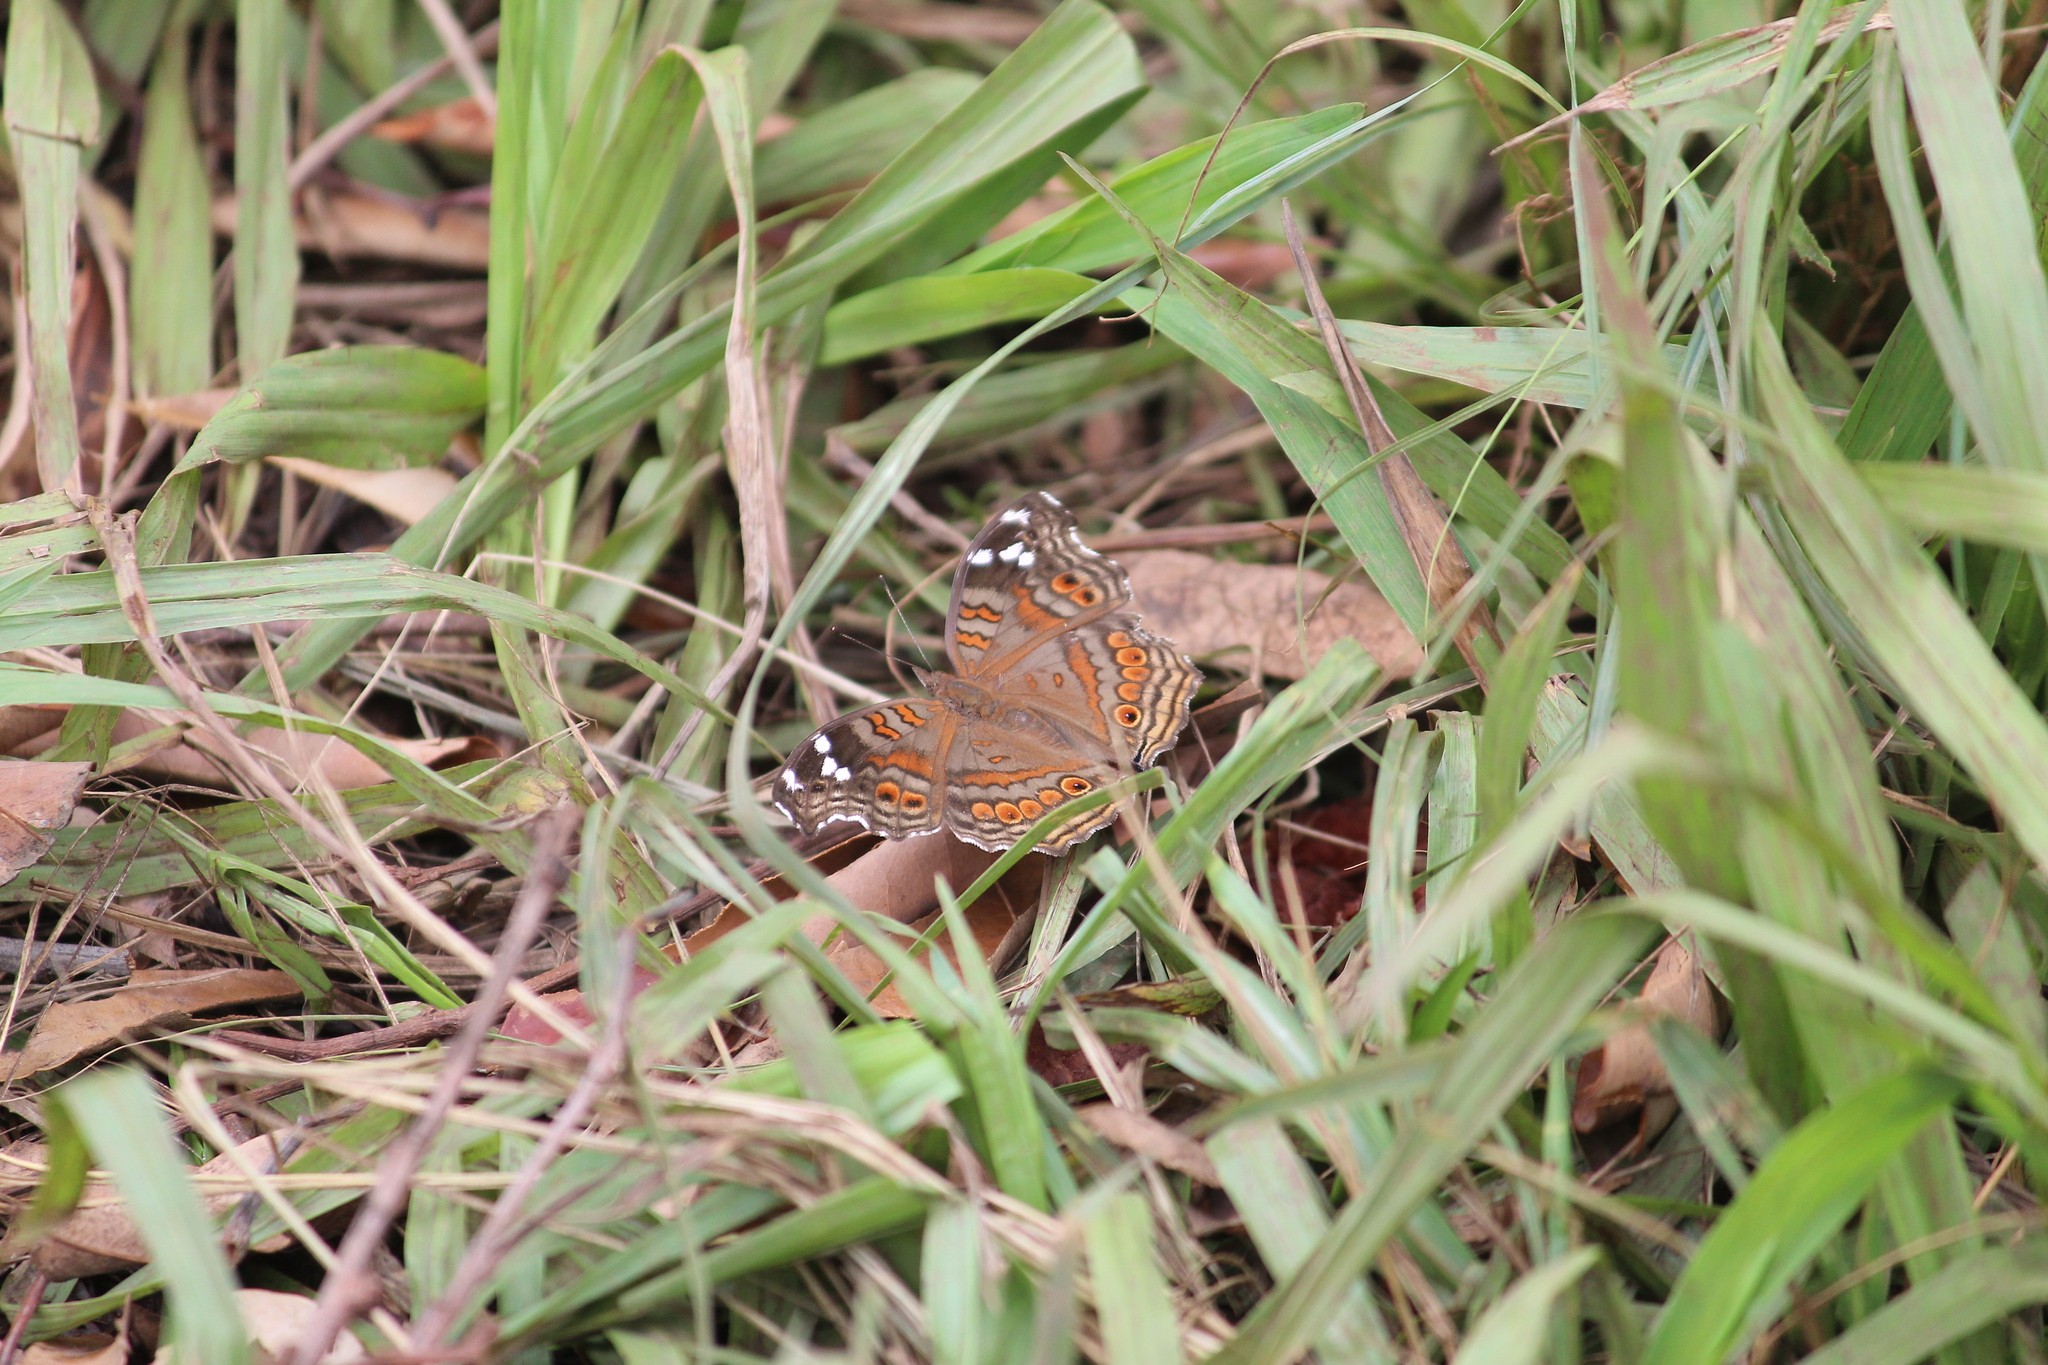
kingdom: Animalia
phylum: Arthropoda
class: Insecta
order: Lepidoptera
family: Nymphalidae
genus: Junonia
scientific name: Junonia natalica
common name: Brown pansy
